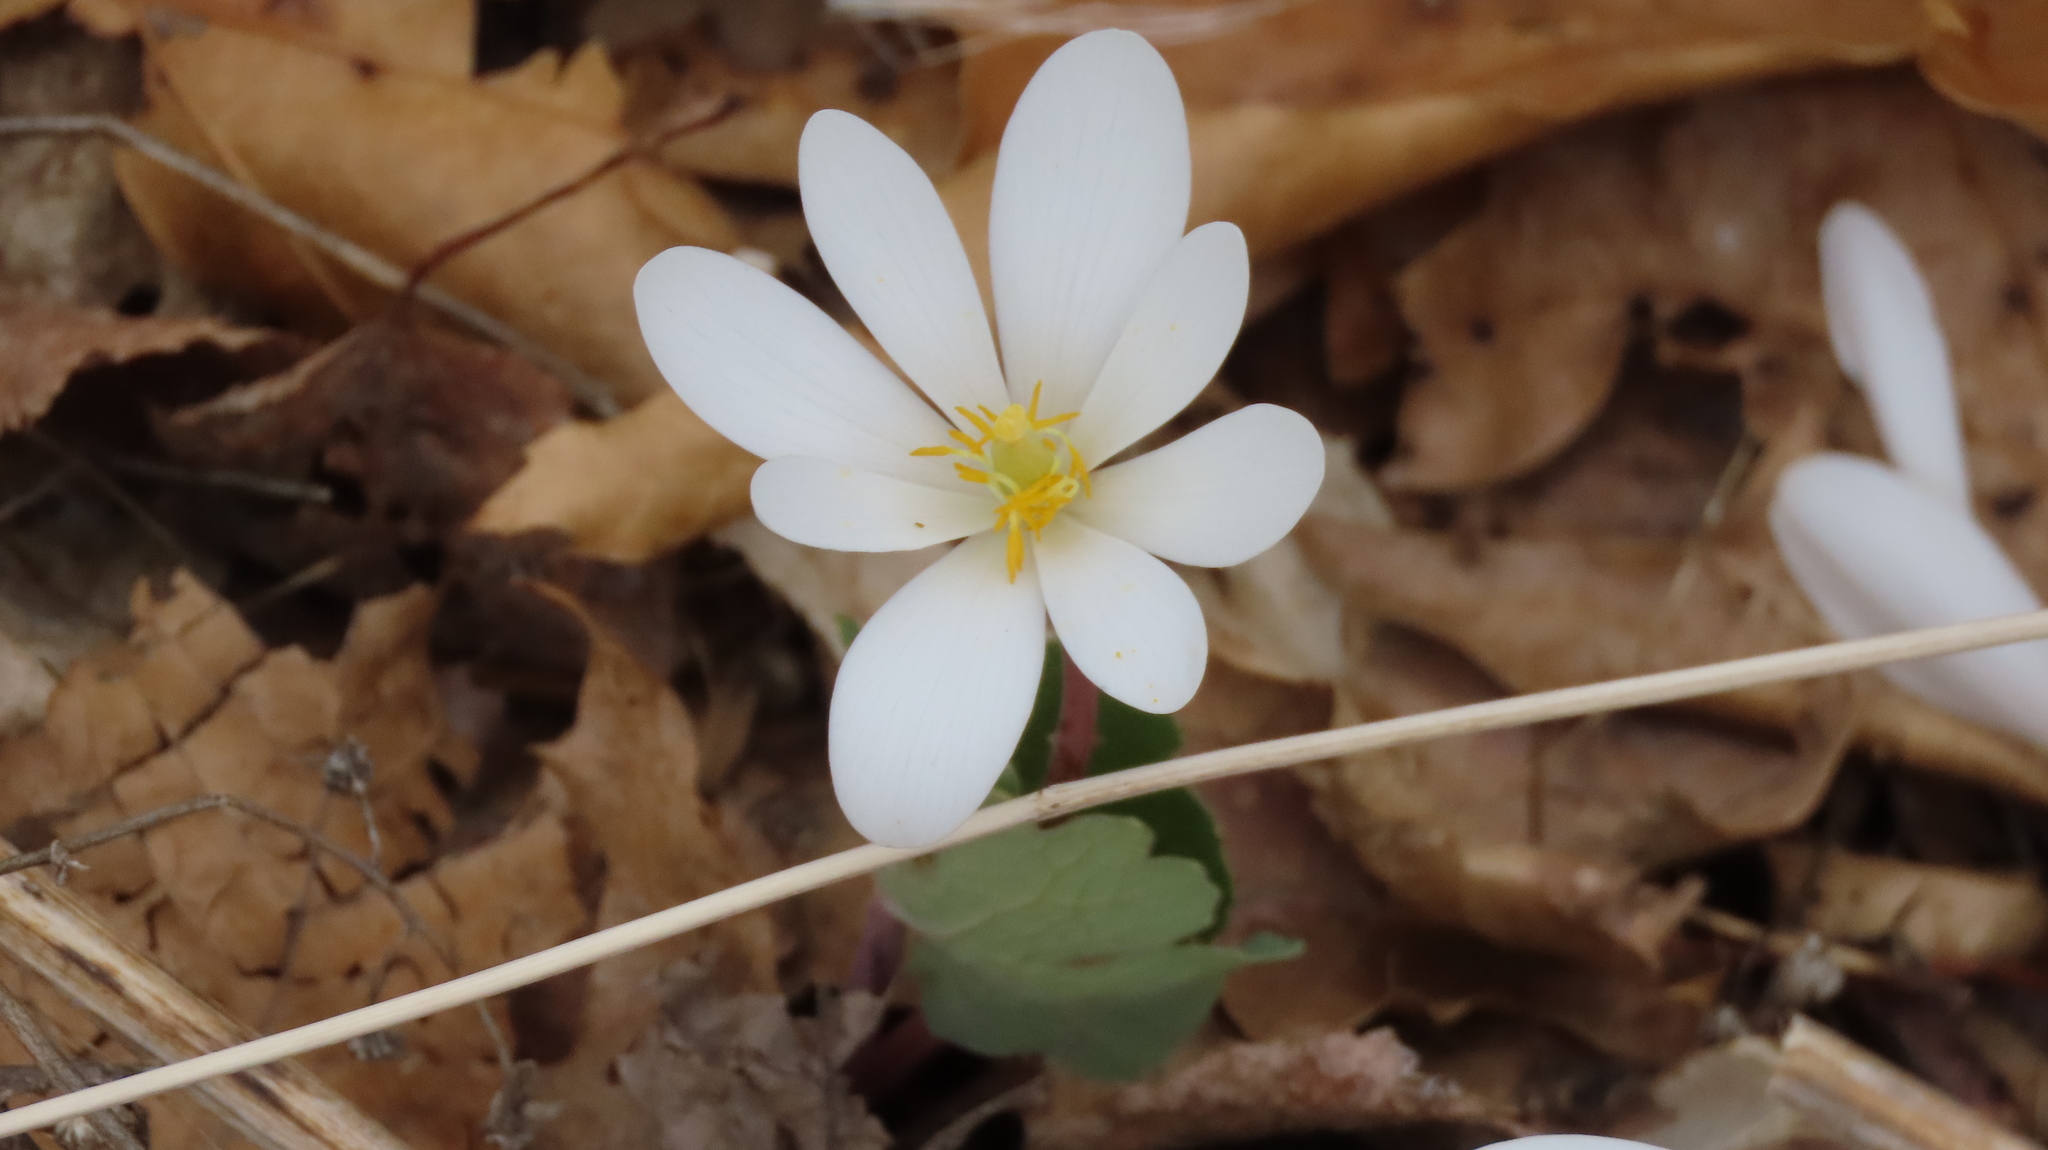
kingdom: Plantae
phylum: Tracheophyta
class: Magnoliopsida
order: Ranunculales
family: Papaveraceae
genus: Sanguinaria
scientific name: Sanguinaria canadensis
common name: Bloodroot
